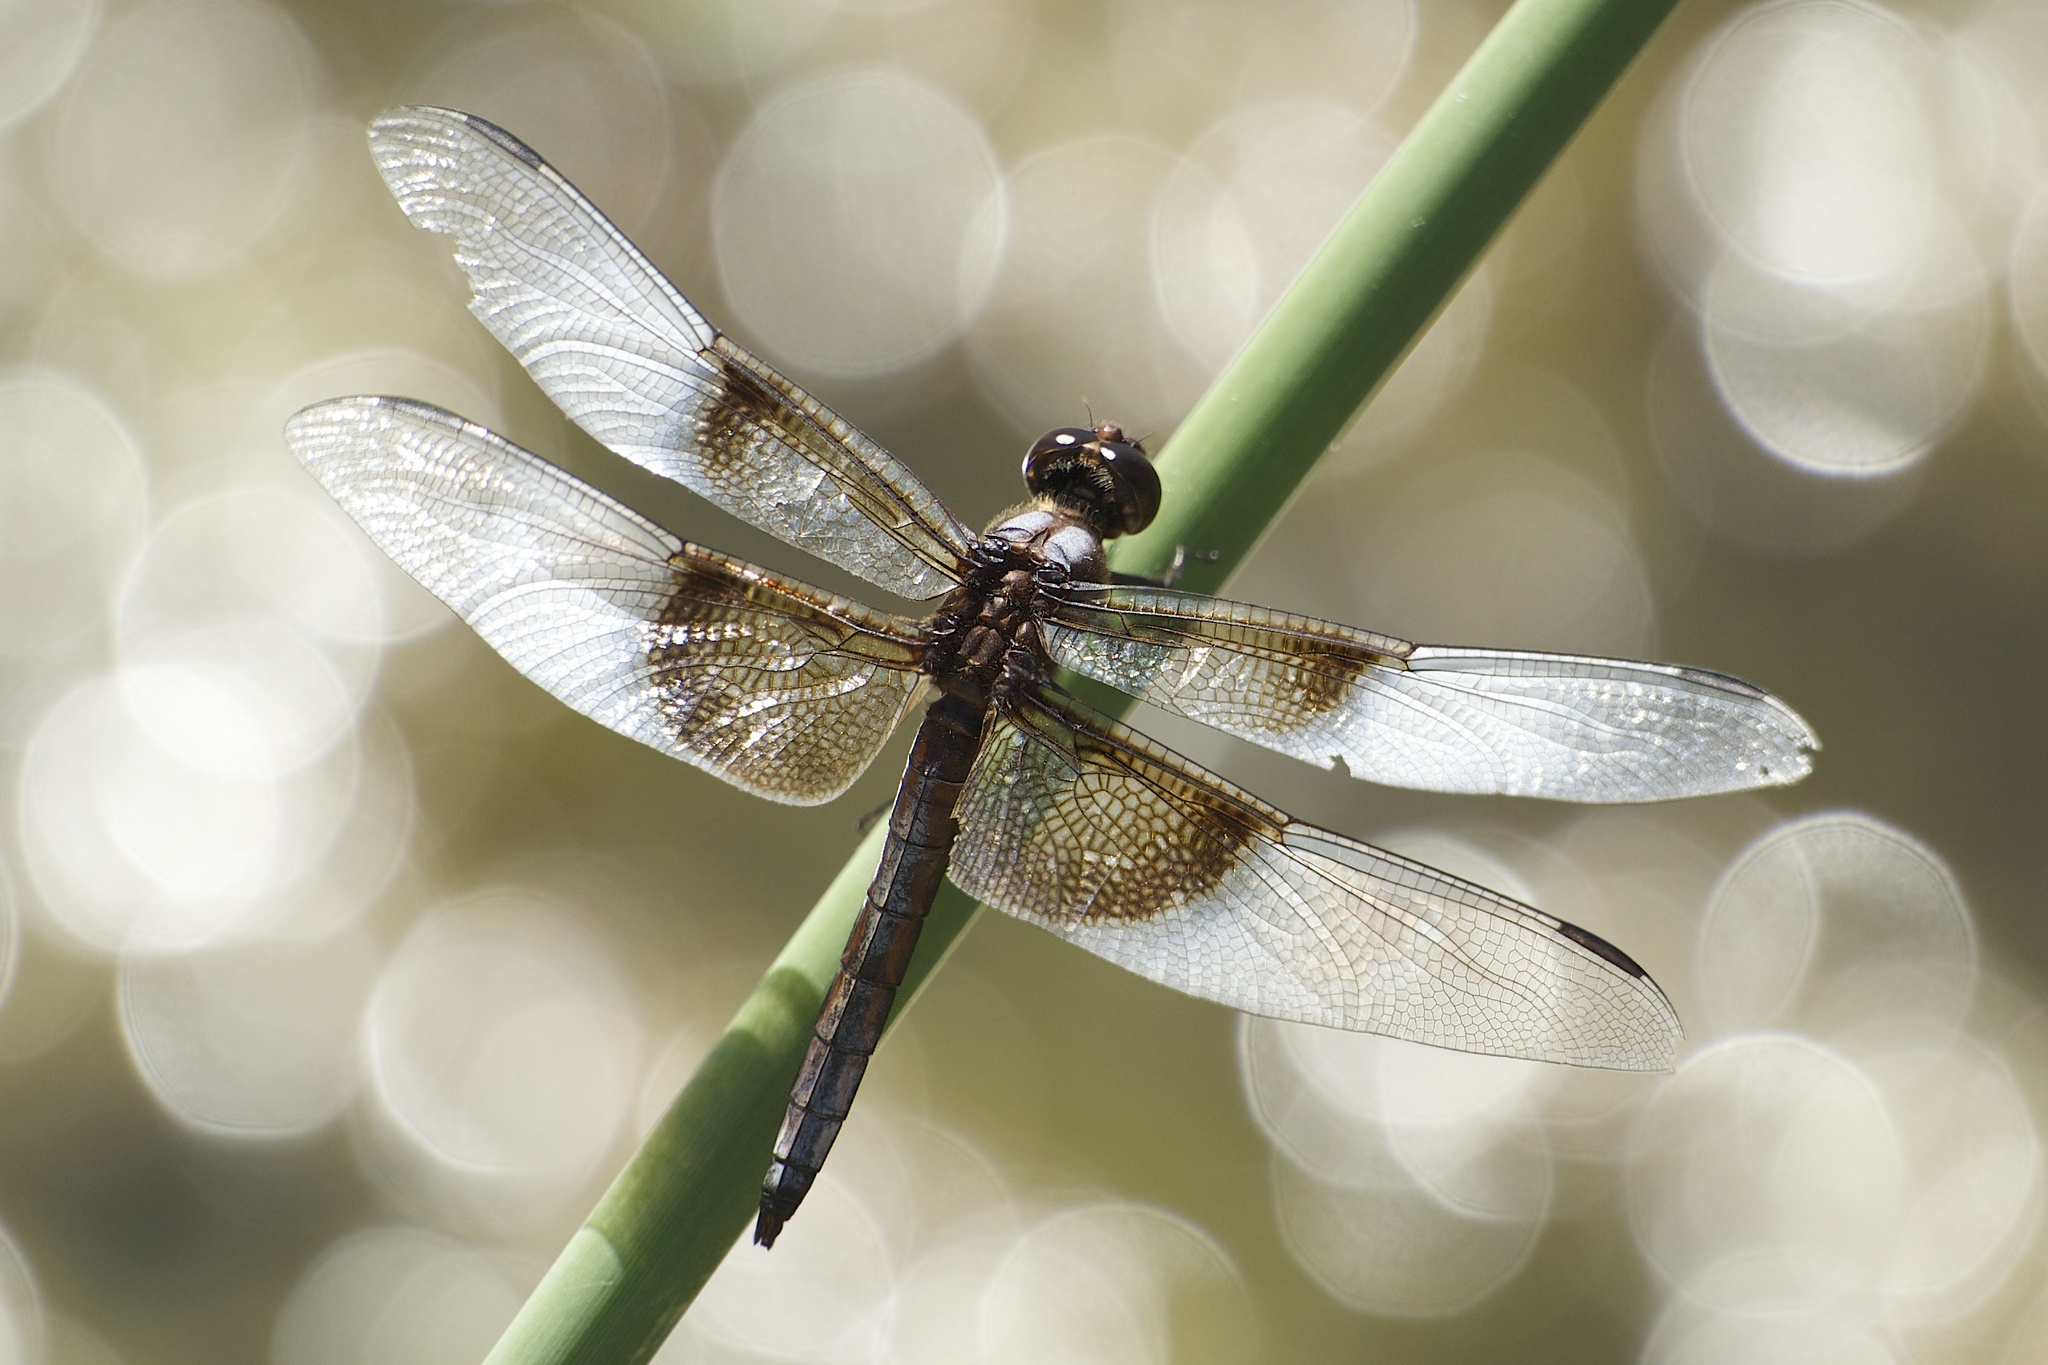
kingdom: Animalia
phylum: Arthropoda
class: Insecta
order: Odonata
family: Libellulidae
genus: Libellula
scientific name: Libellula luctuosa
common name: Widow skimmer
